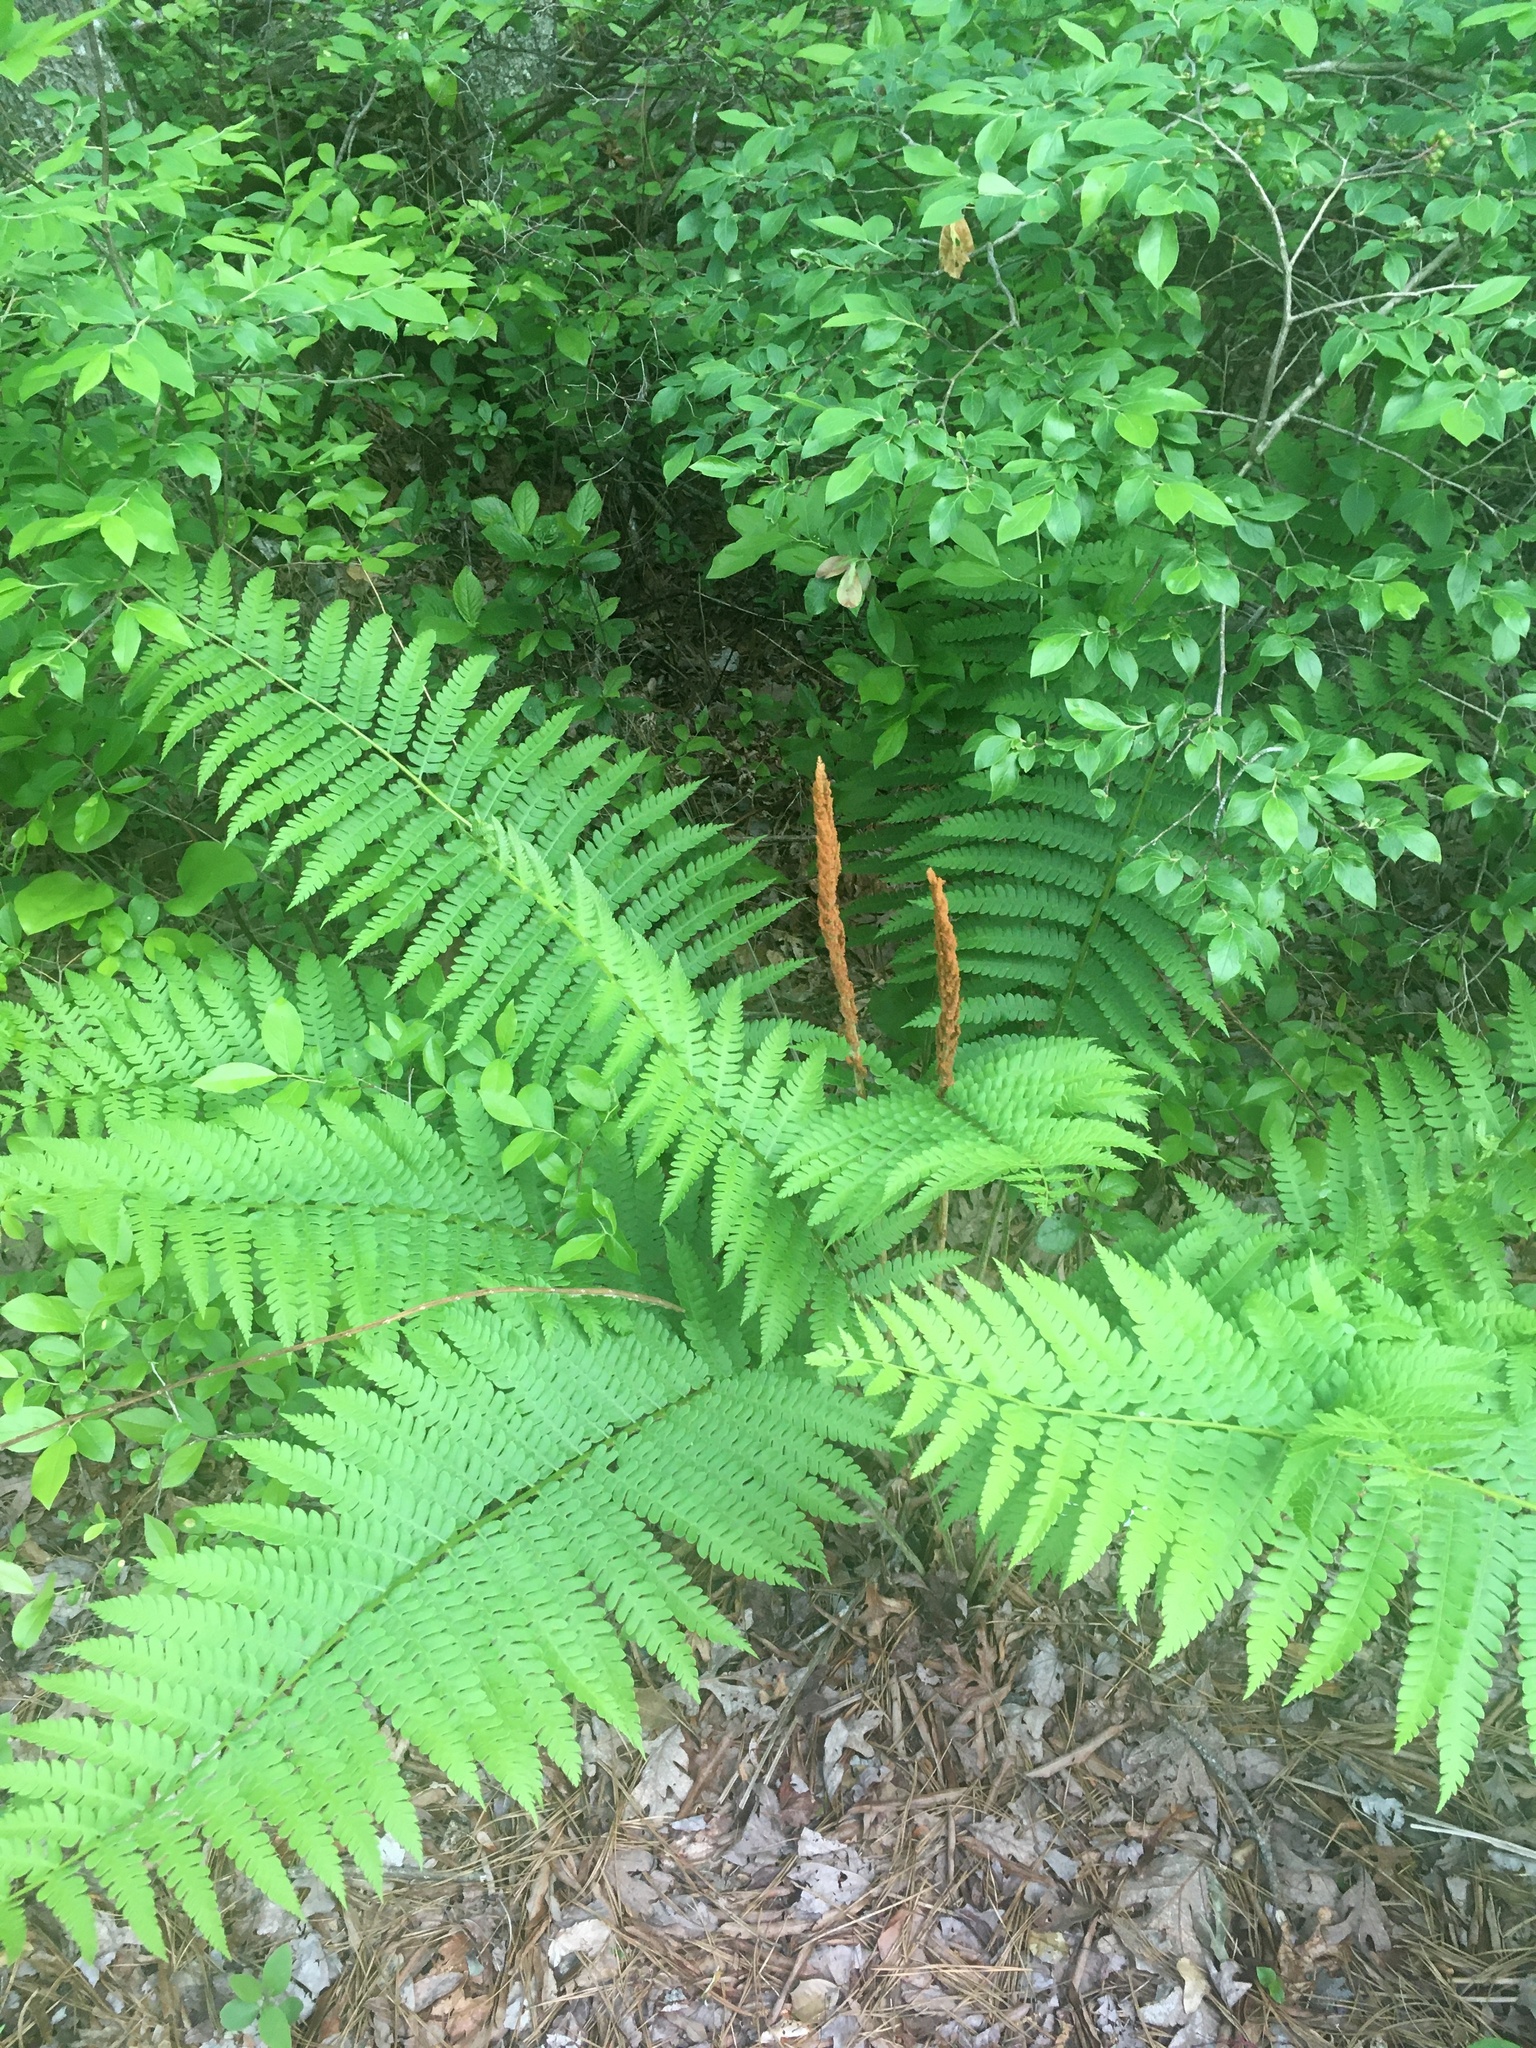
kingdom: Plantae
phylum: Tracheophyta
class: Polypodiopsida
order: Osmundales
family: Osmundaceae
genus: Osmundastrum
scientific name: Osmundastrum cinnamomeum
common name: Cinnamon fern
